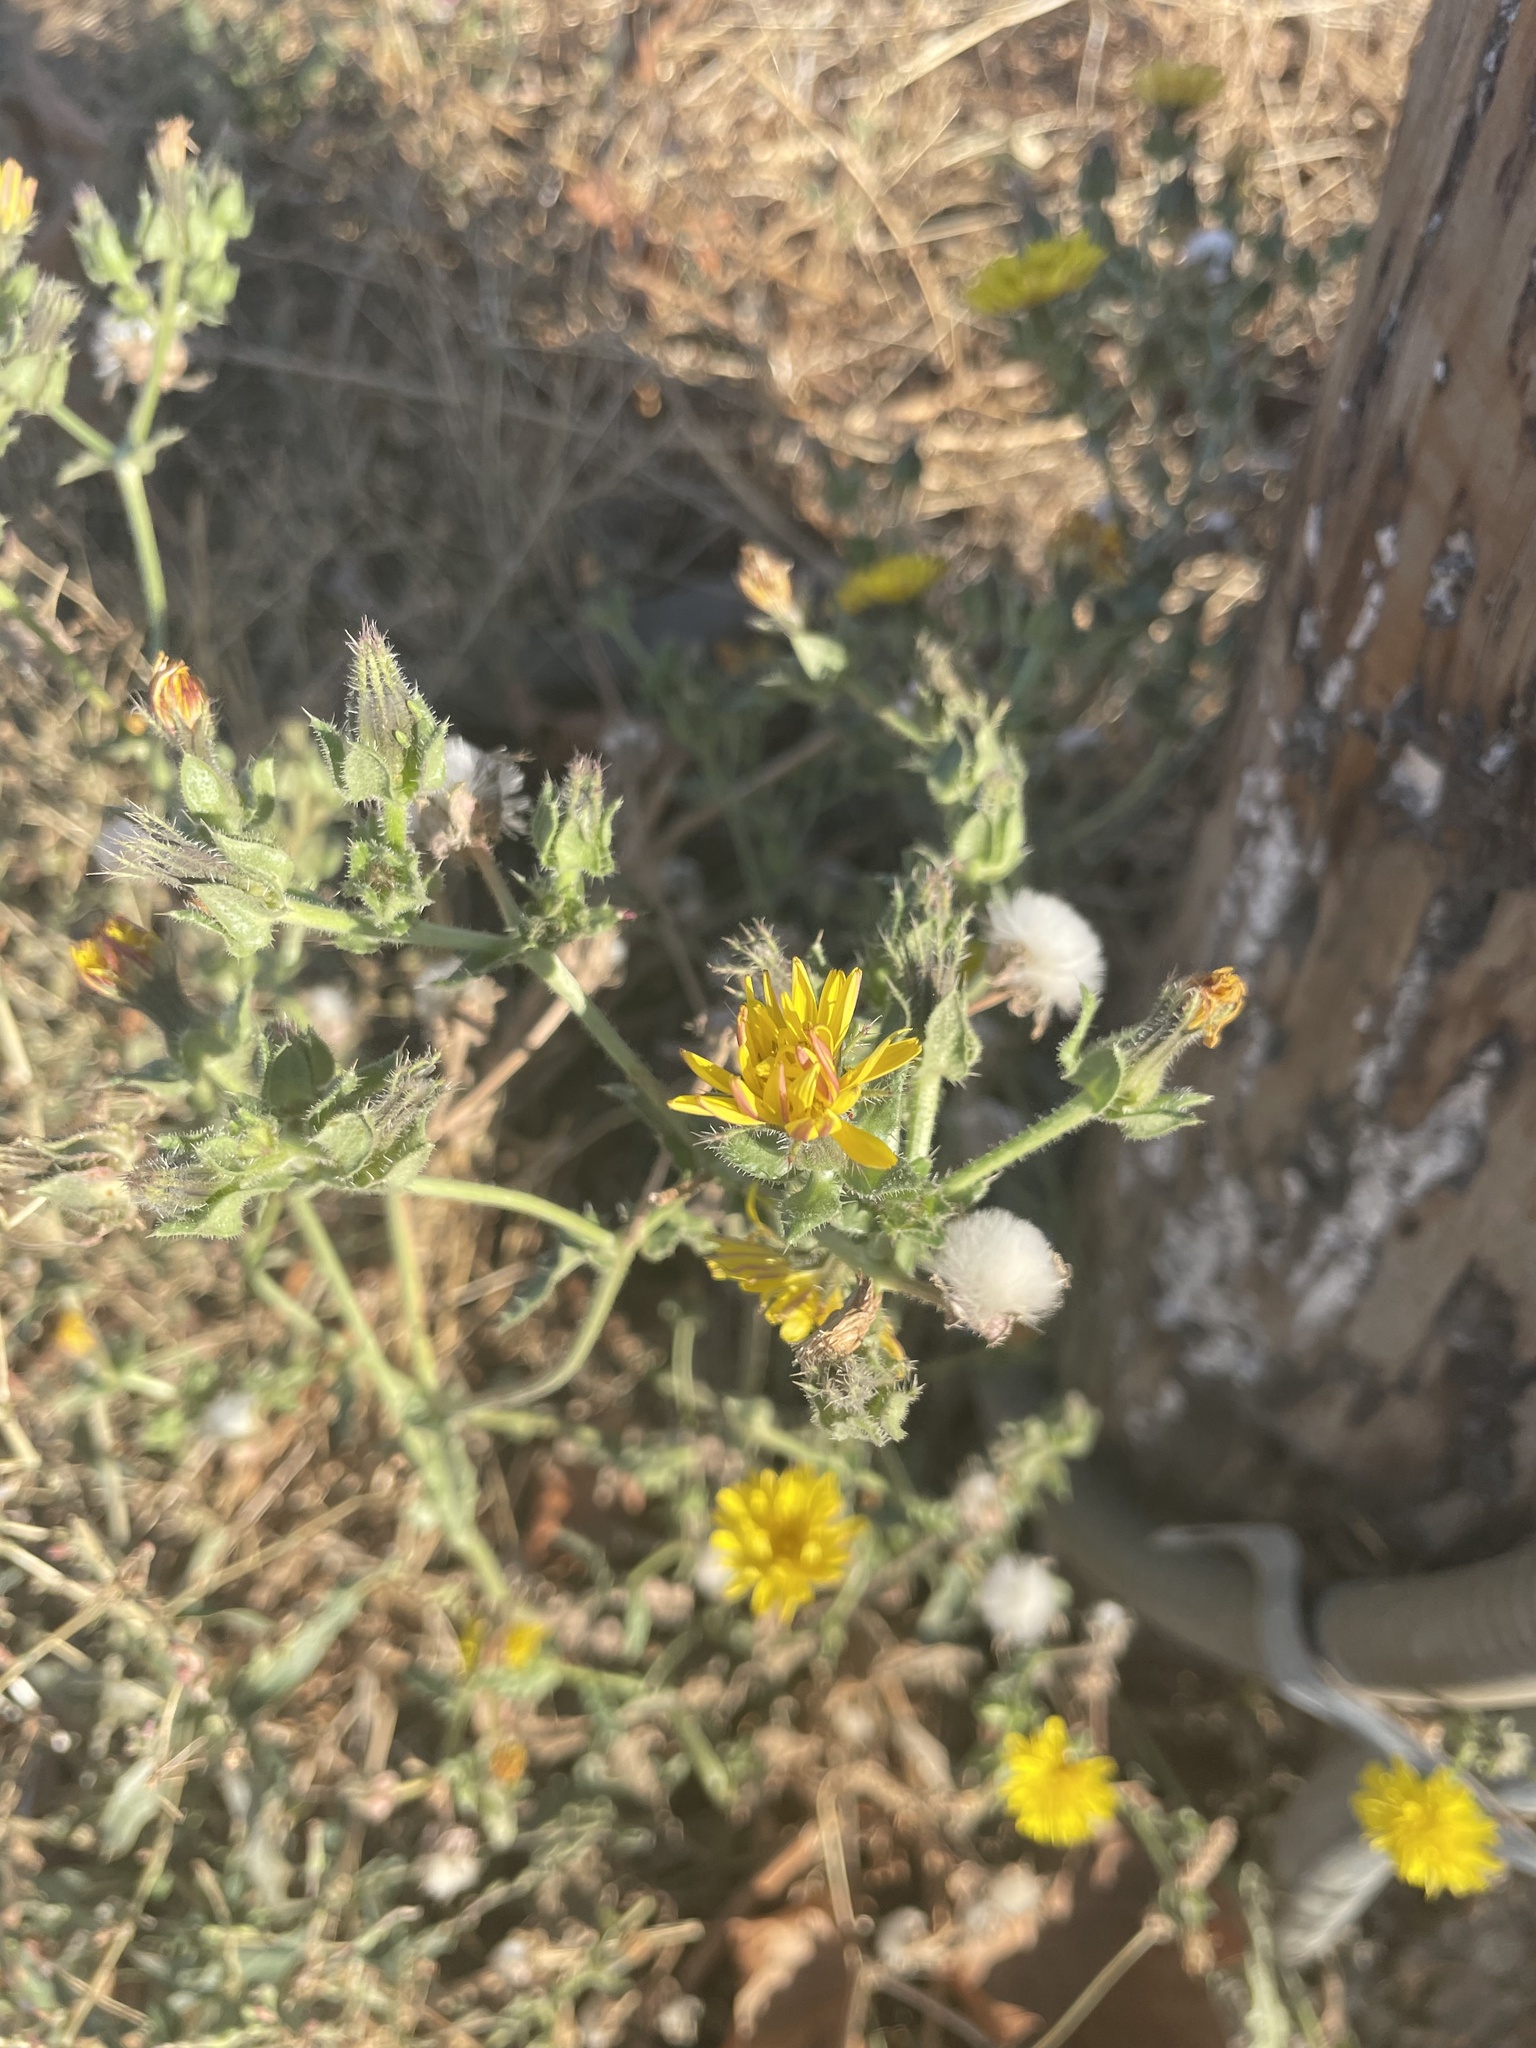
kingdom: Plantae
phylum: Tracheophyta
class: Magnoliopsida
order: Asterales
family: Asteraceae
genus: Helminthotheca
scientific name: Helminthotheca echioides
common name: Ox-tongue
